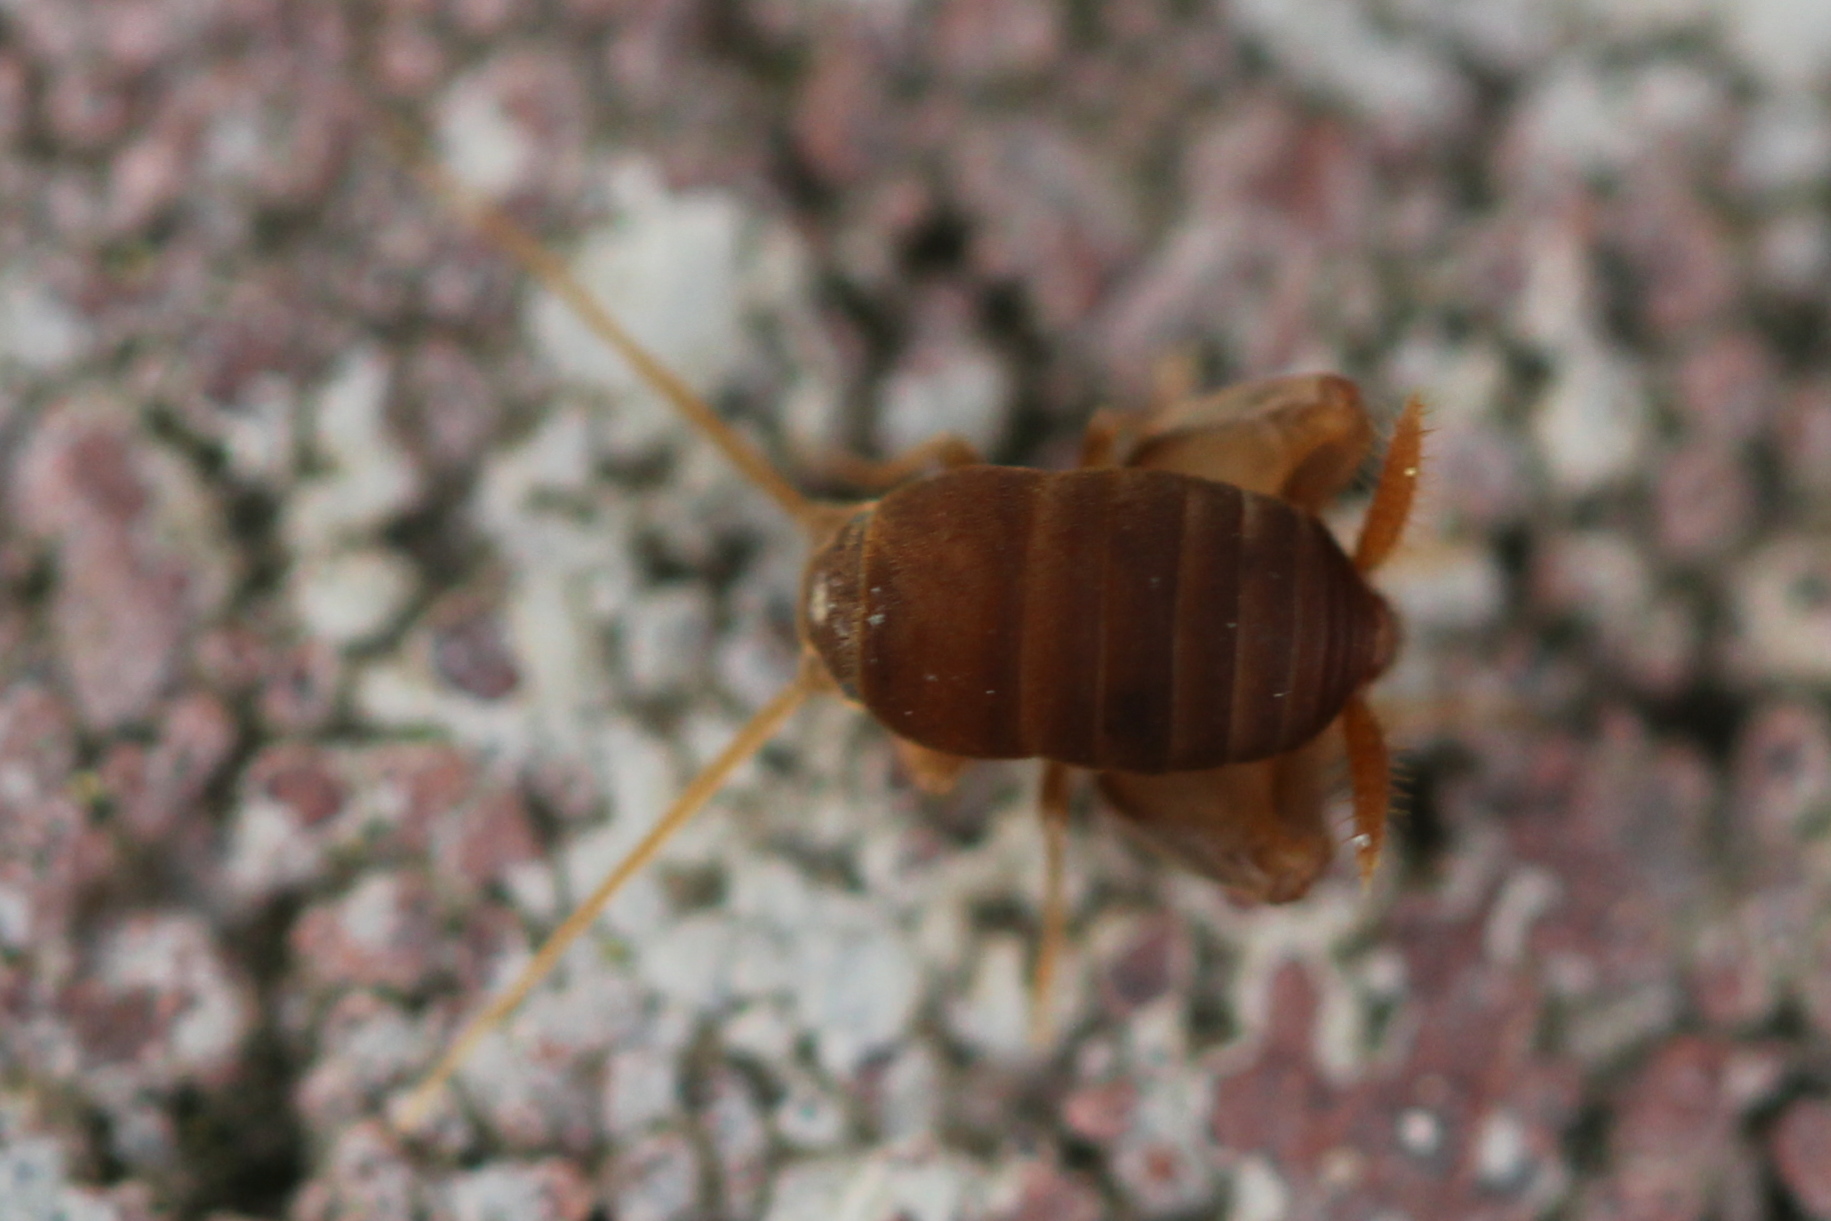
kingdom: Animalia
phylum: Arthropoda
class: Insecta
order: Orthoptera
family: Myrmecophilidae
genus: Myrmecophilus
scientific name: Myrmecophilus pergandei
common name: Eastern ant cricket
